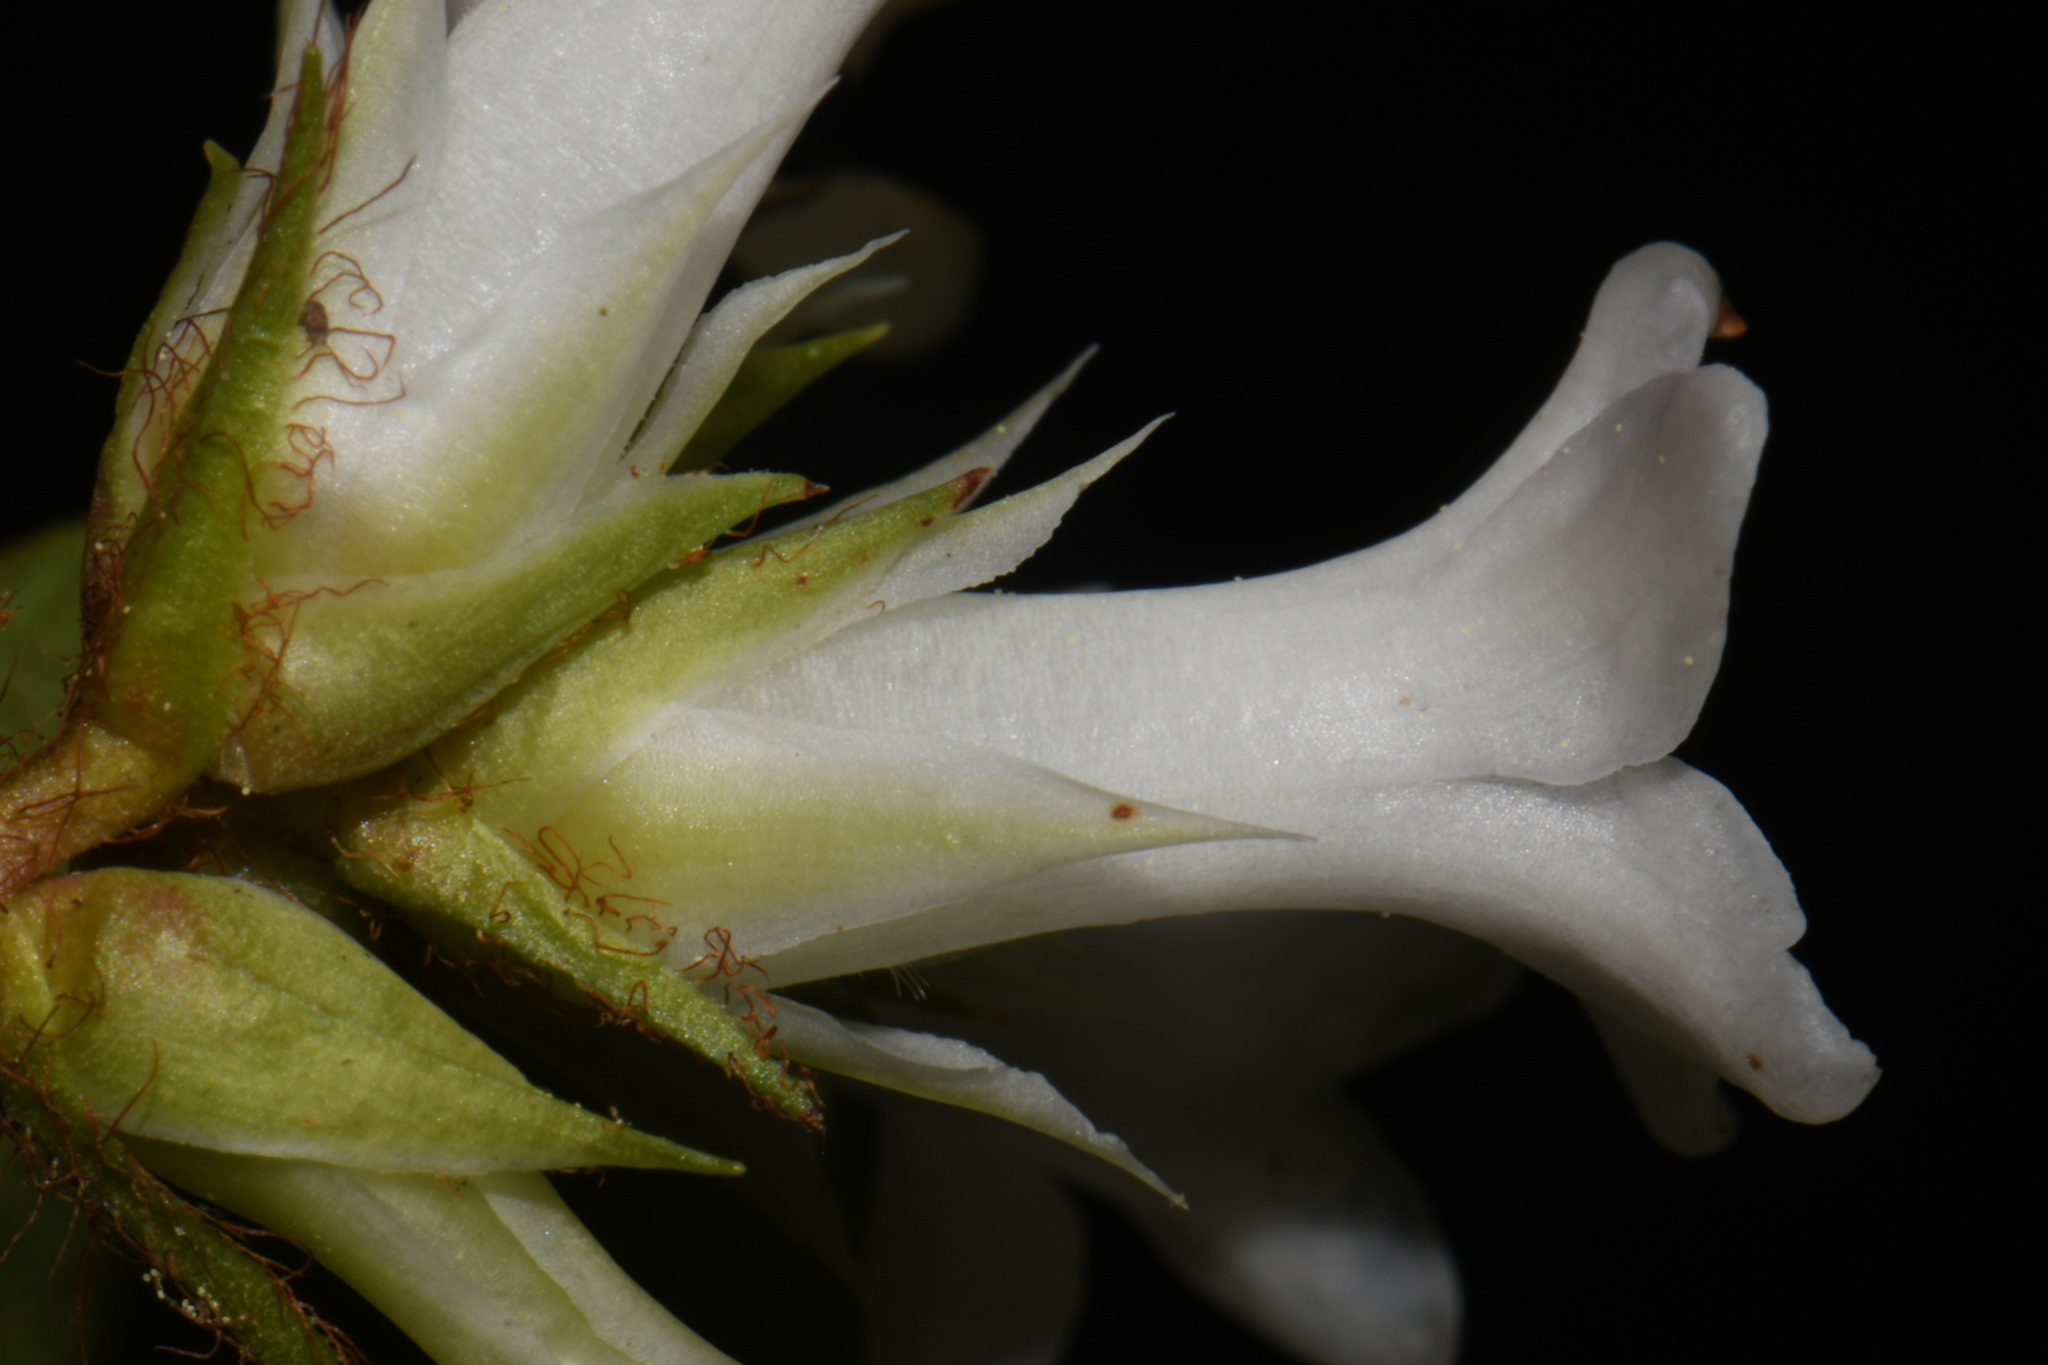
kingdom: Plantae
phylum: Tracheophyta
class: Magnoliopsida
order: Ericales
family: Ericaceae
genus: Epigaea
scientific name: Epigaea repens
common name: Gravelroot
